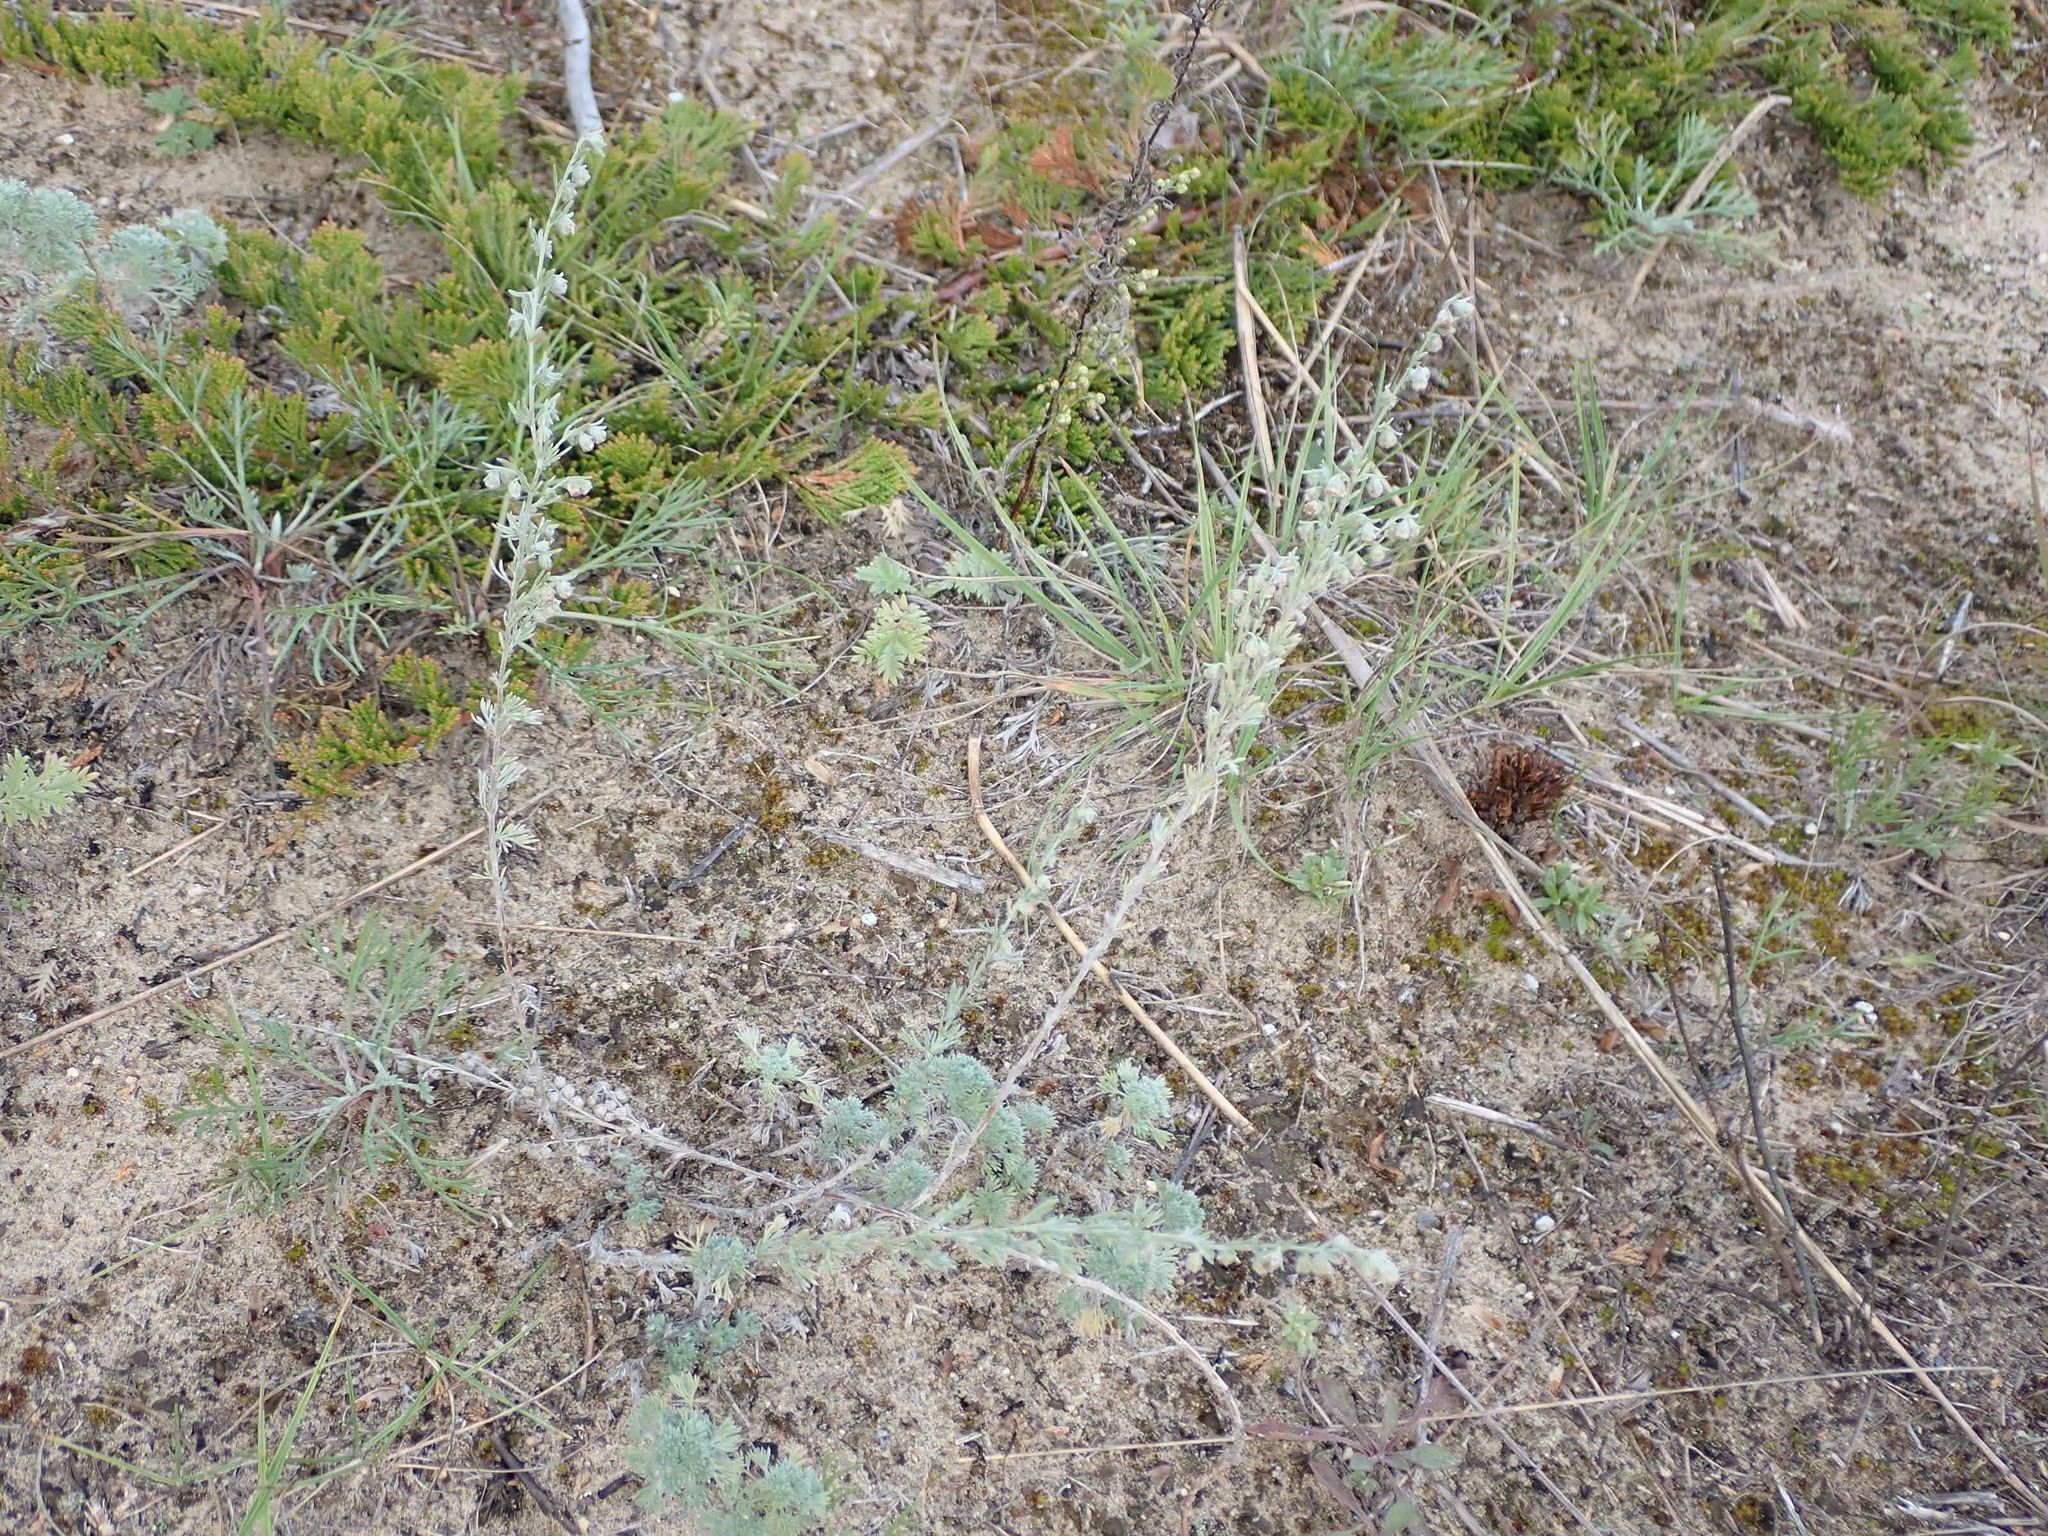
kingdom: Plantae
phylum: Tracheophyta
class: Magnoliopsida
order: Asterales
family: Asteraceae
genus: Artemisia
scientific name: Artemisia frigida
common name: Prairie sagewort
